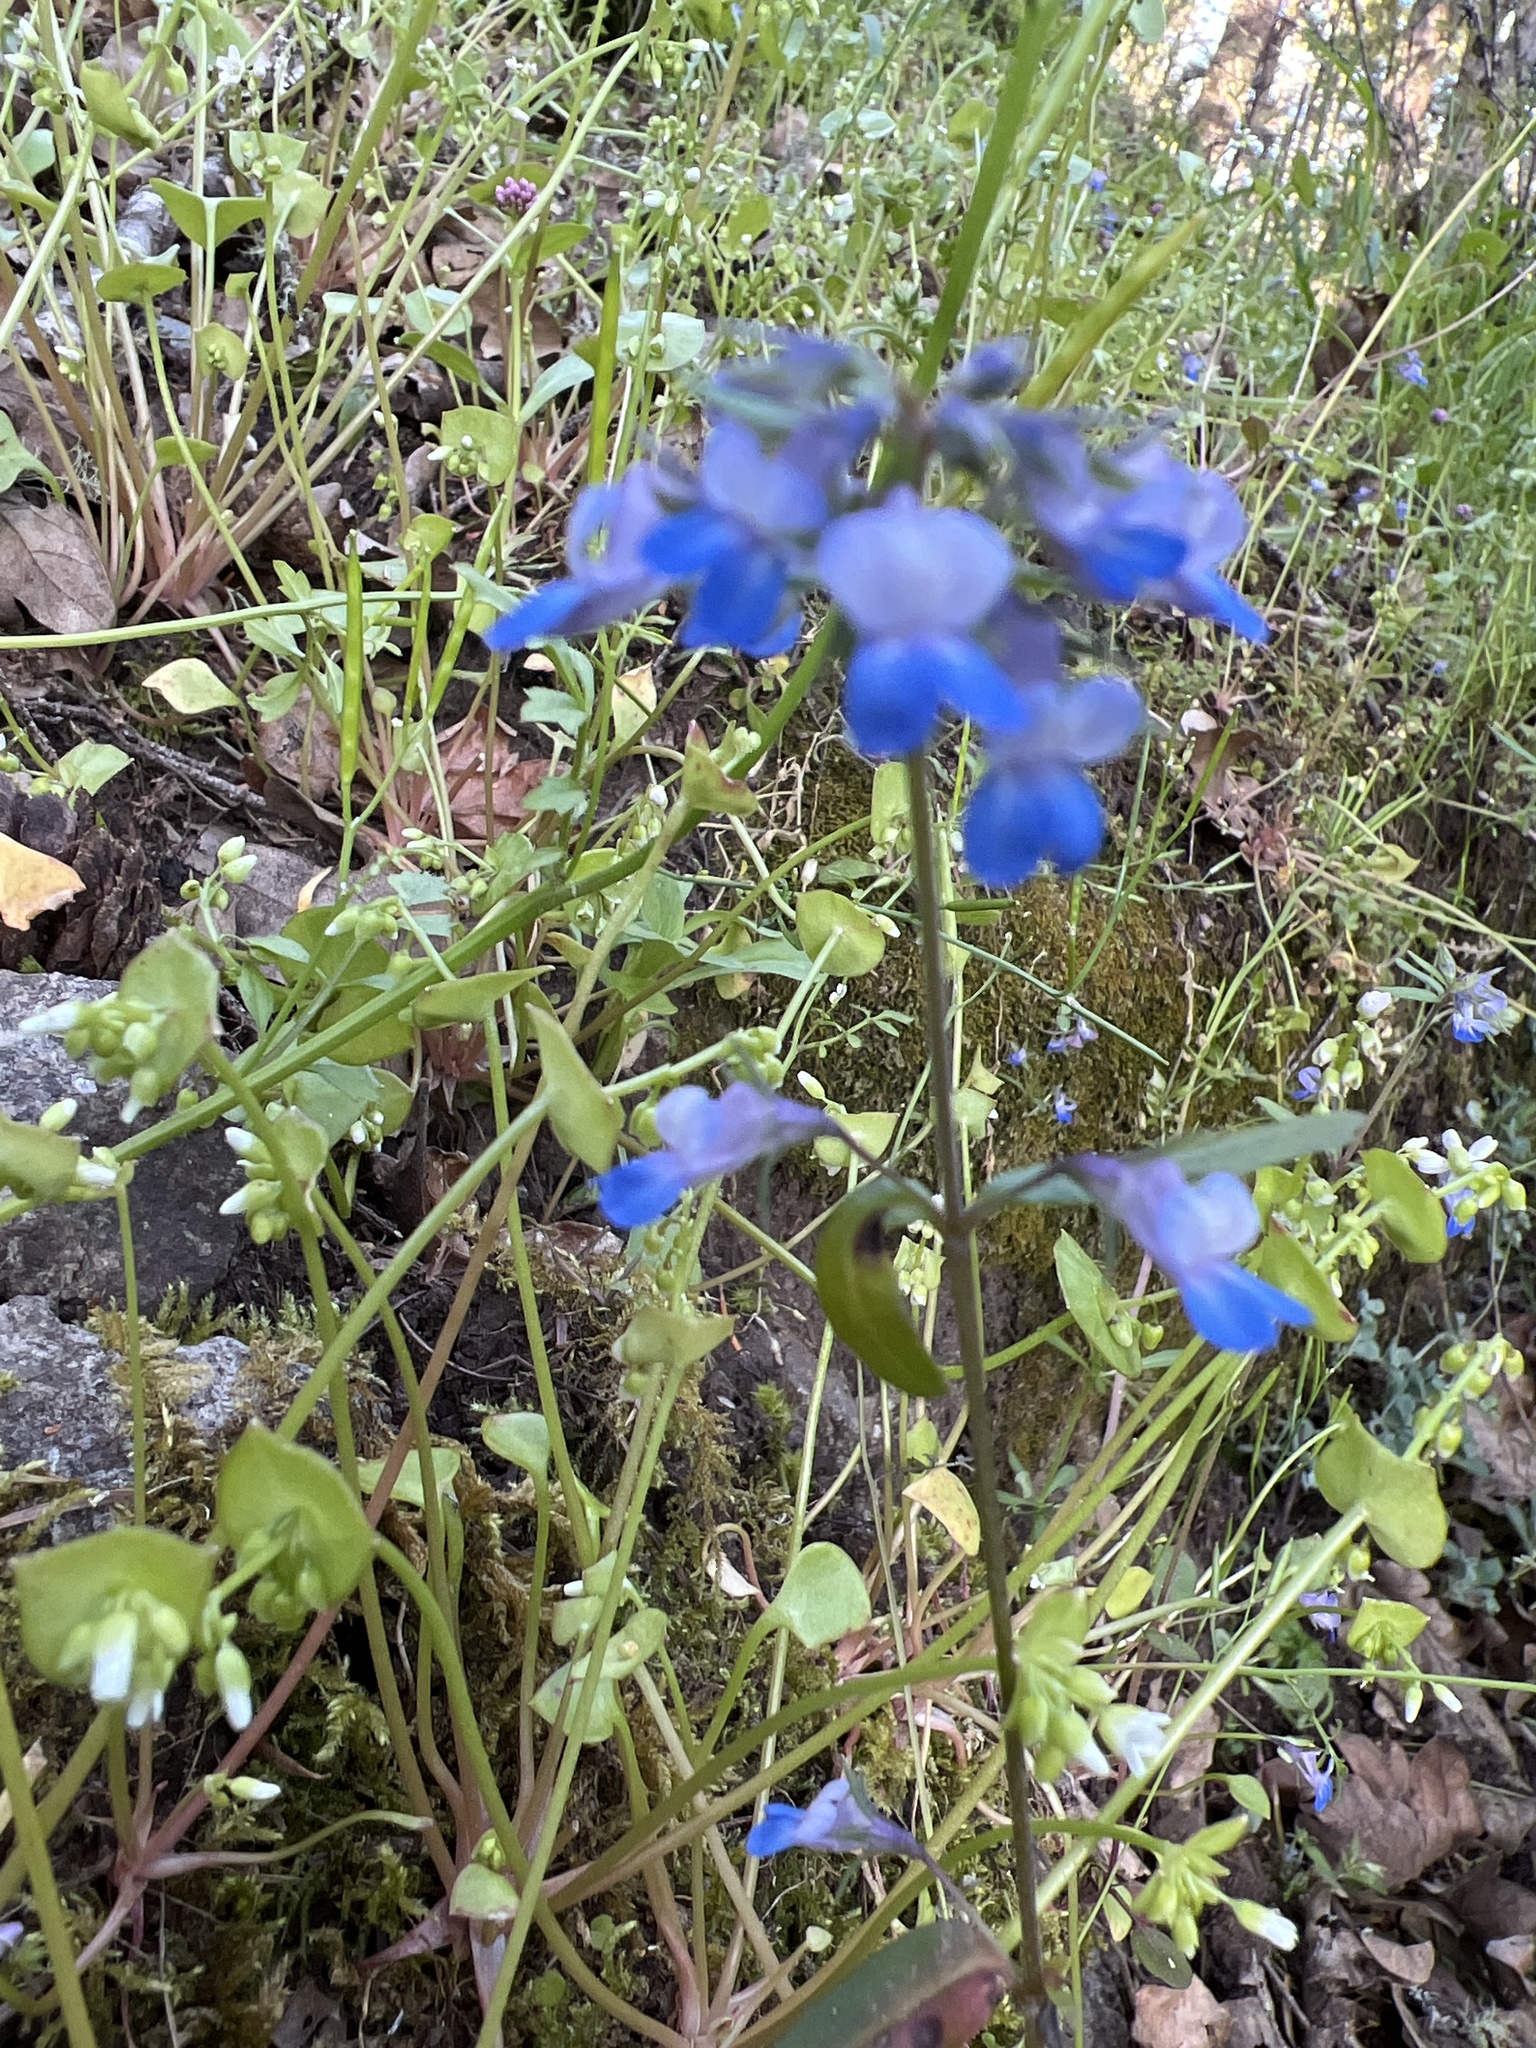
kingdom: Plantae
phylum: Tracheophyta
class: Magnoliopsida
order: Lamiales
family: Plantaginaceae
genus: Collinsia
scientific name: Collinsia grandiflora
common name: Large-flower blue-eyed-mary
